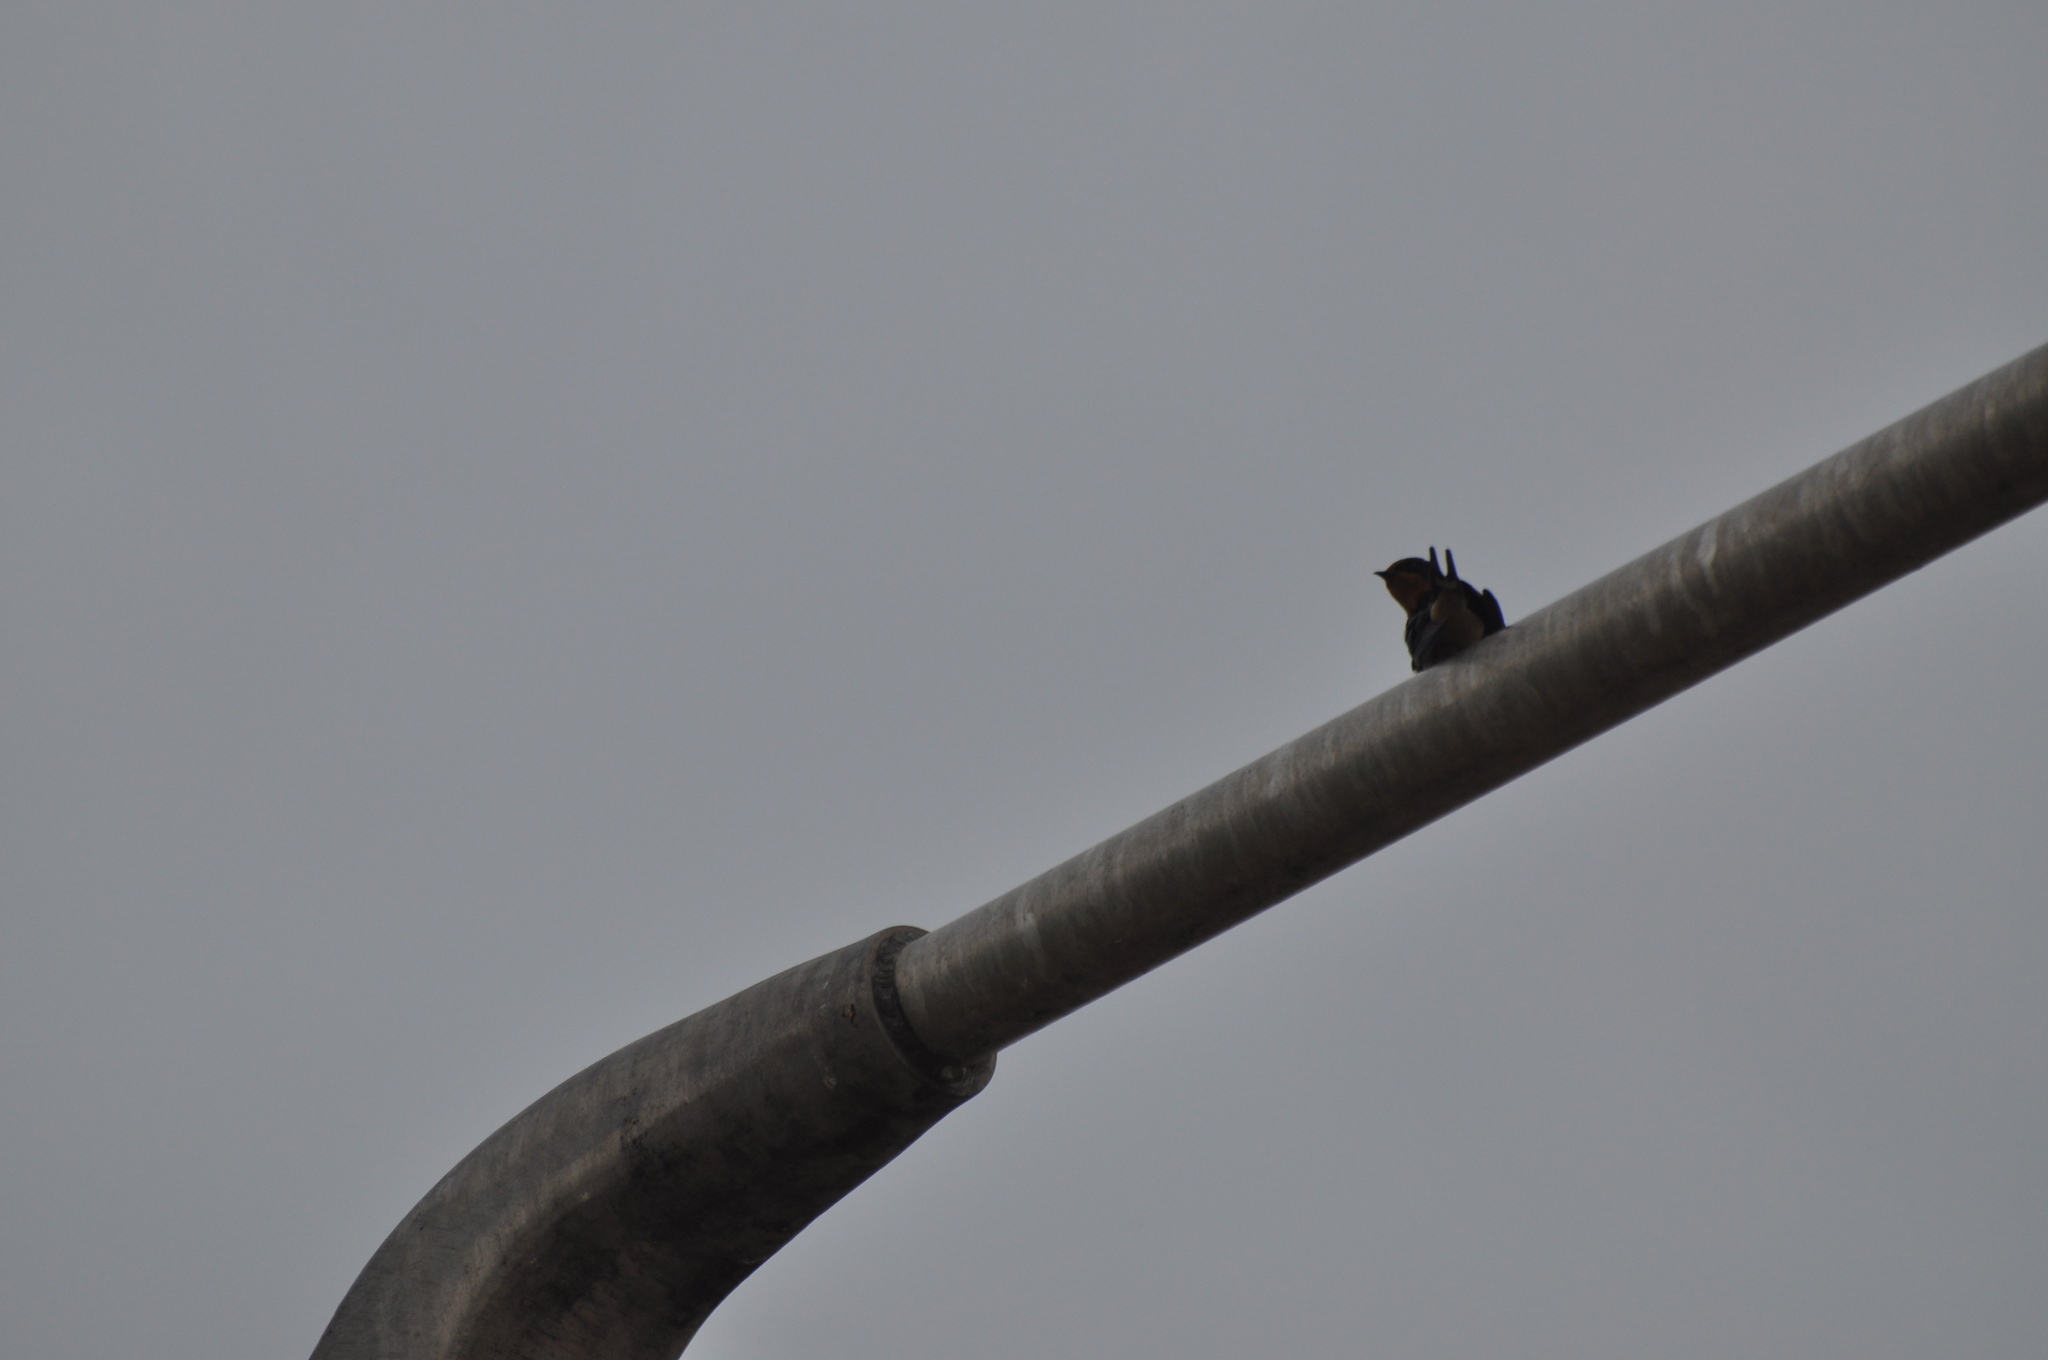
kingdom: Animalia
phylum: Chordata
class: Aves
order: Passeriformes
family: Hirundinidae
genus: Hirundo
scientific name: Hirundo rustica
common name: Barn swallow
